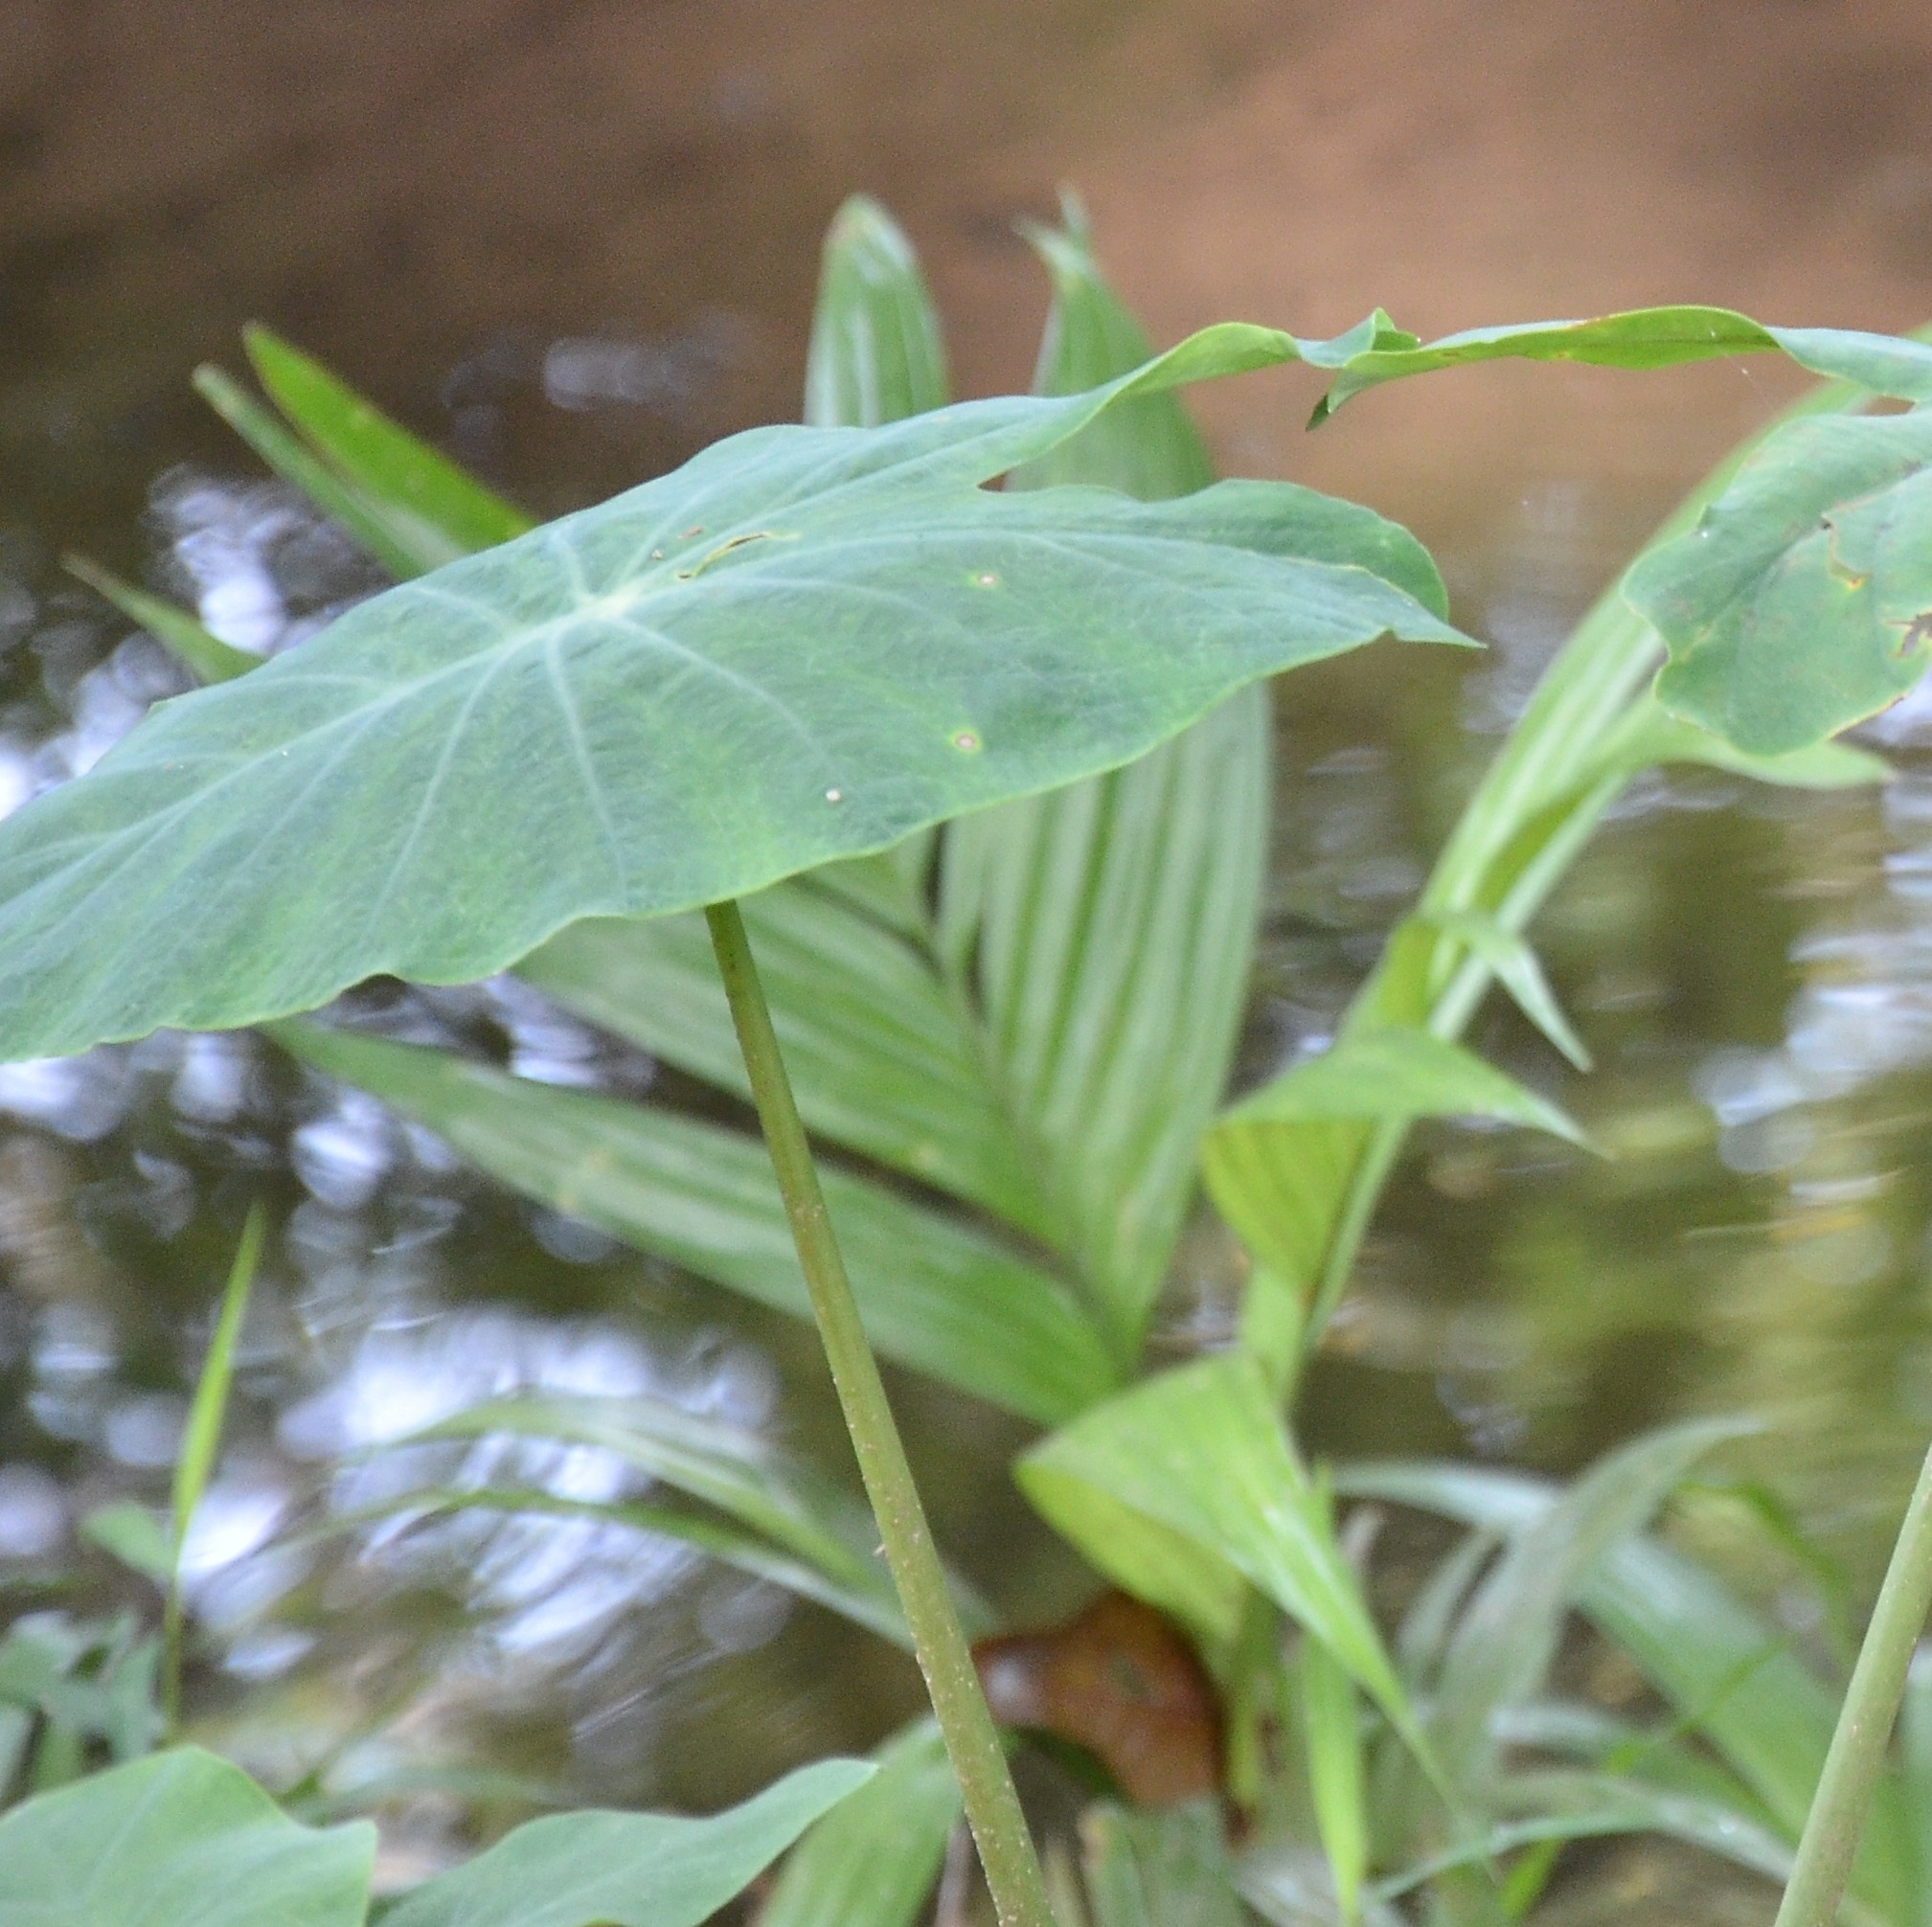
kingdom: Plantae
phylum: Tracheophyta
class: Liliopsida
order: Alismatales
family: Araceae
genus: Colocasia
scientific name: Colocasia esculenta
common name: Taro
